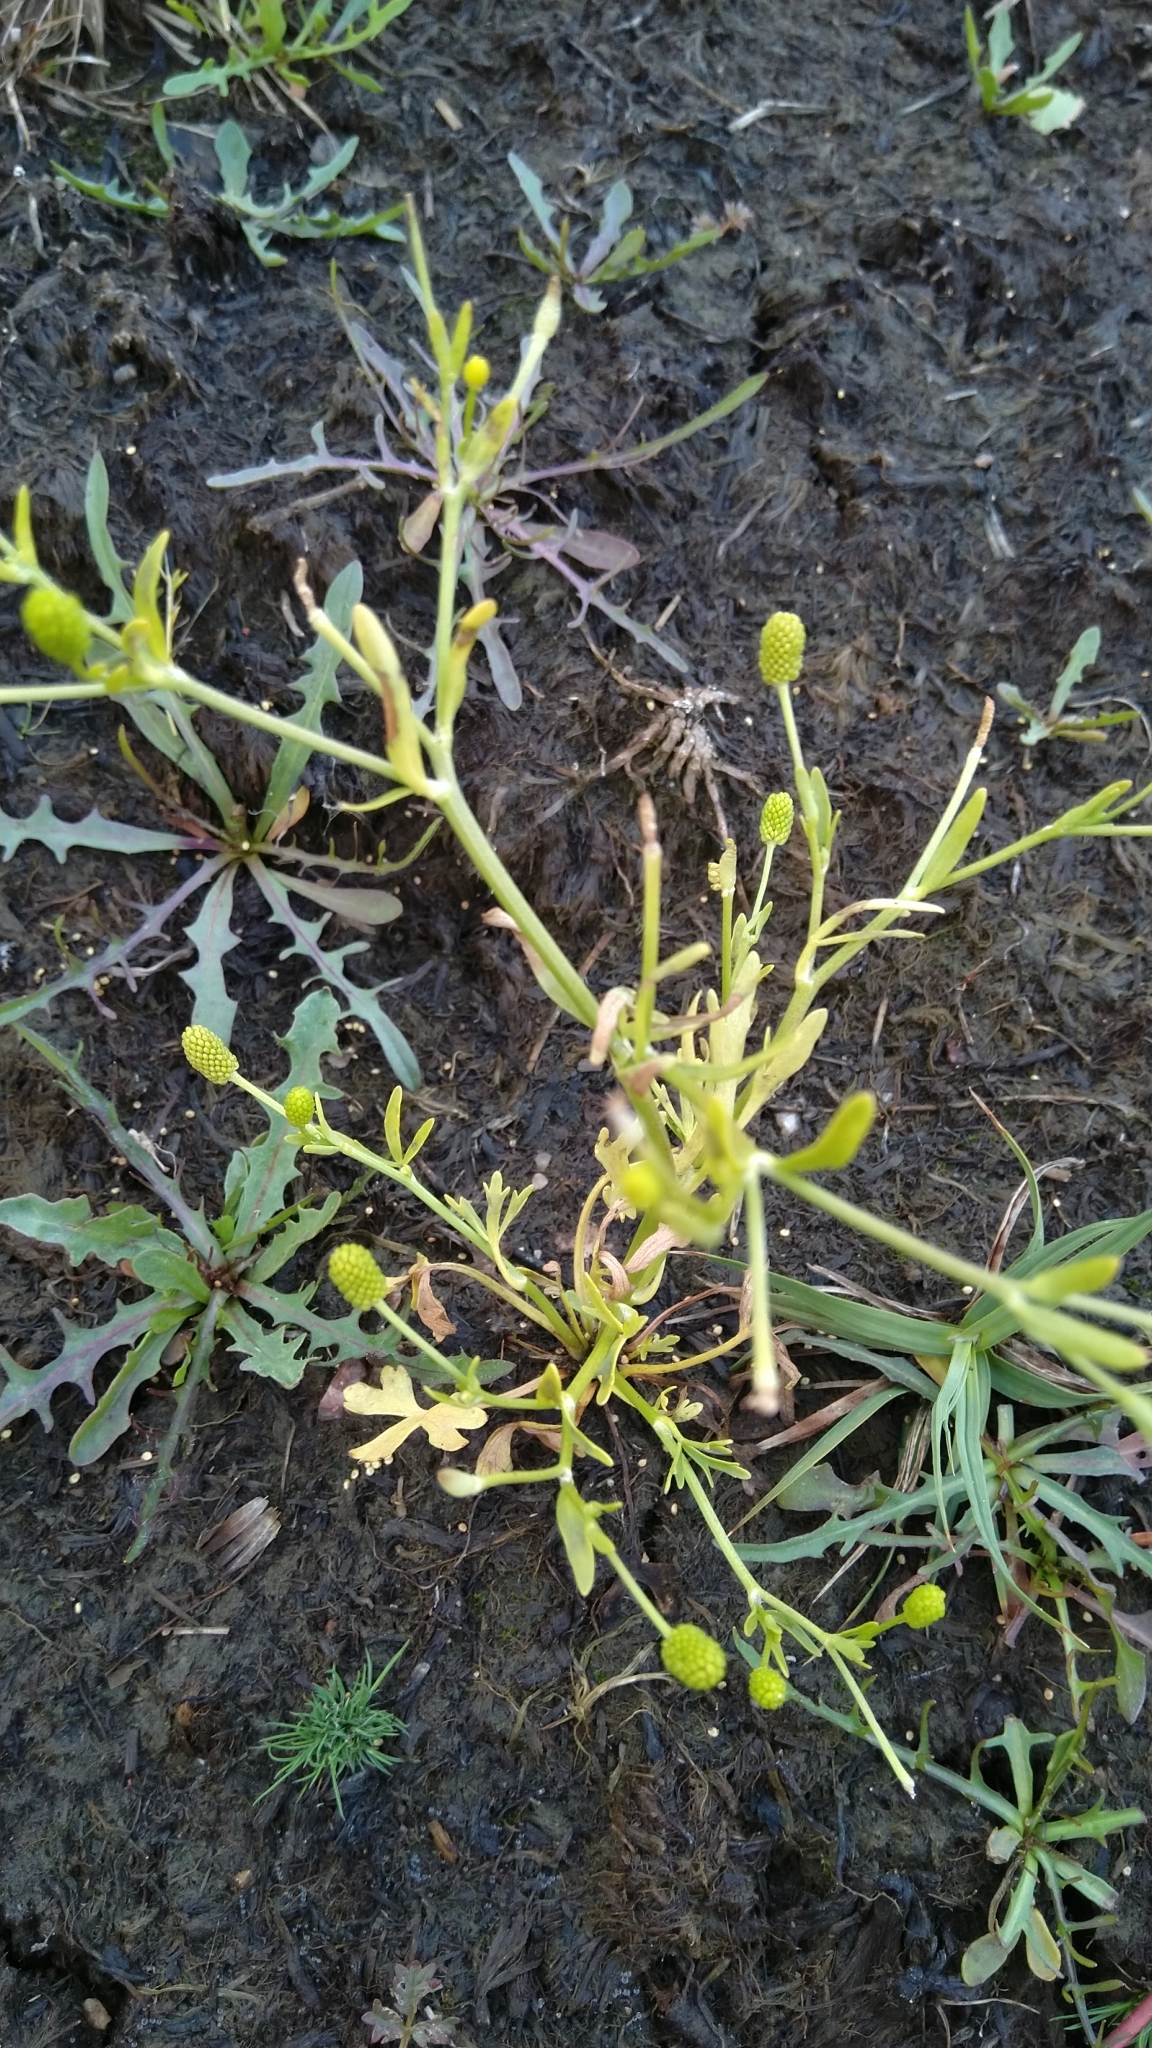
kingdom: Plantae
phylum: Tracheophyta
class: Magnoliopsida
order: Ranunculales
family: Ranunculaceae
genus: Ranunculus
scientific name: Ranunculus sceleratus
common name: Celery-leaved buttercup
